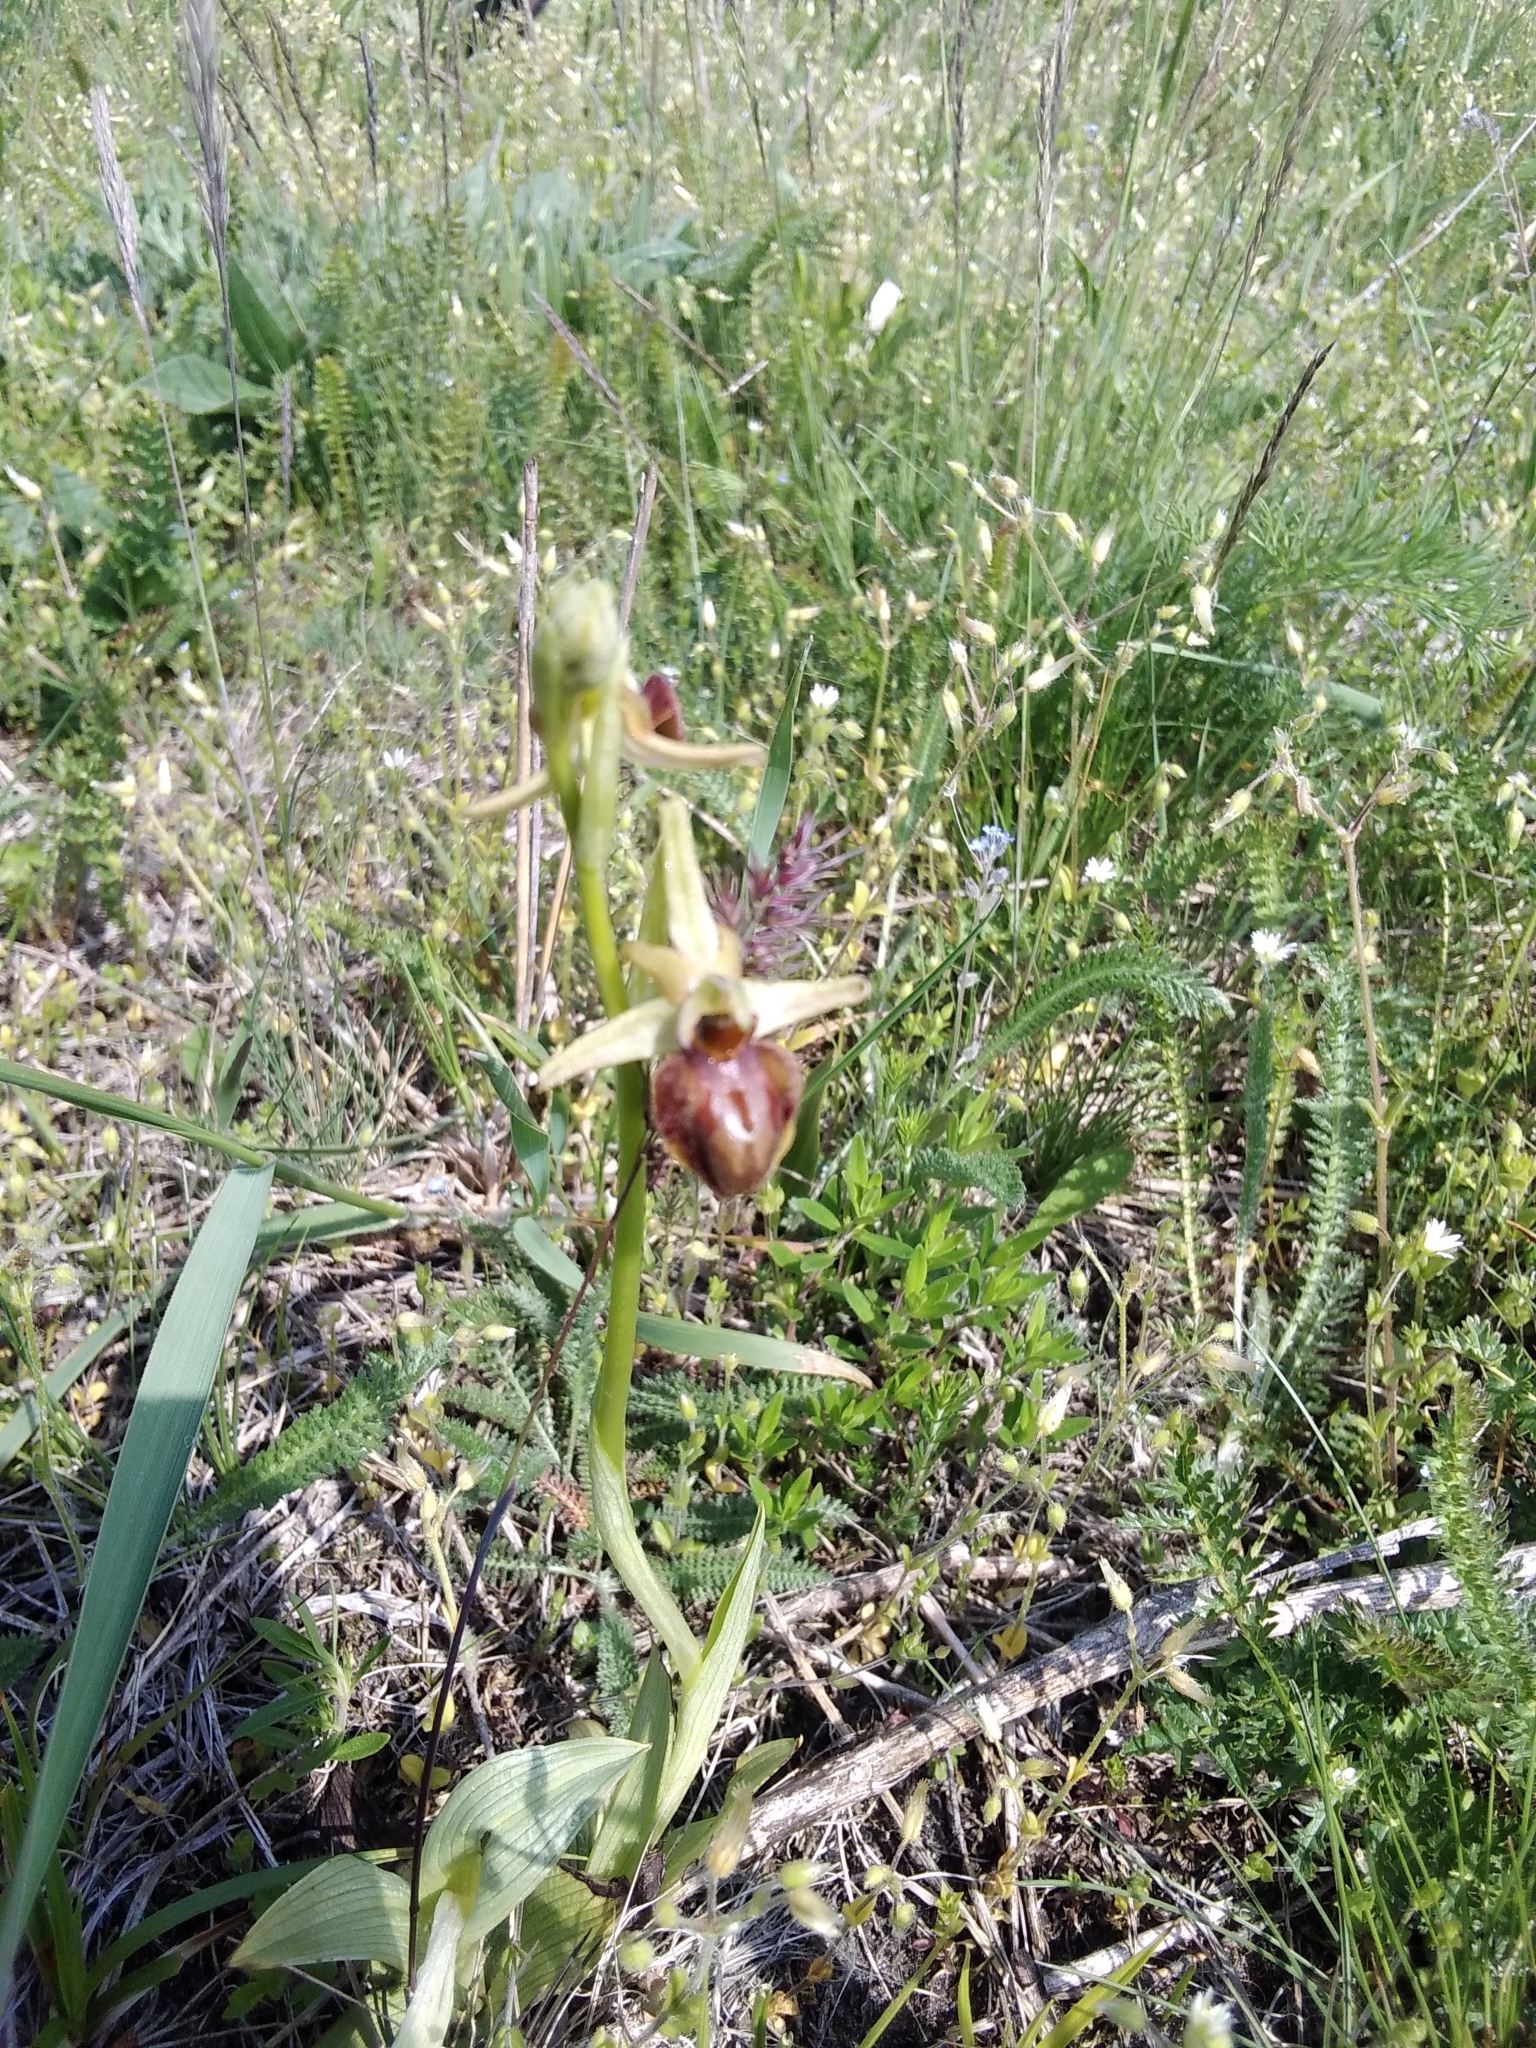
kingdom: Plantae
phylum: Tracheophyta
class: Liliopsida
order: Asparagales
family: Orchidaceae
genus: Ophrys
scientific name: Ophrys sphegodes
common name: Early spider-orchid
